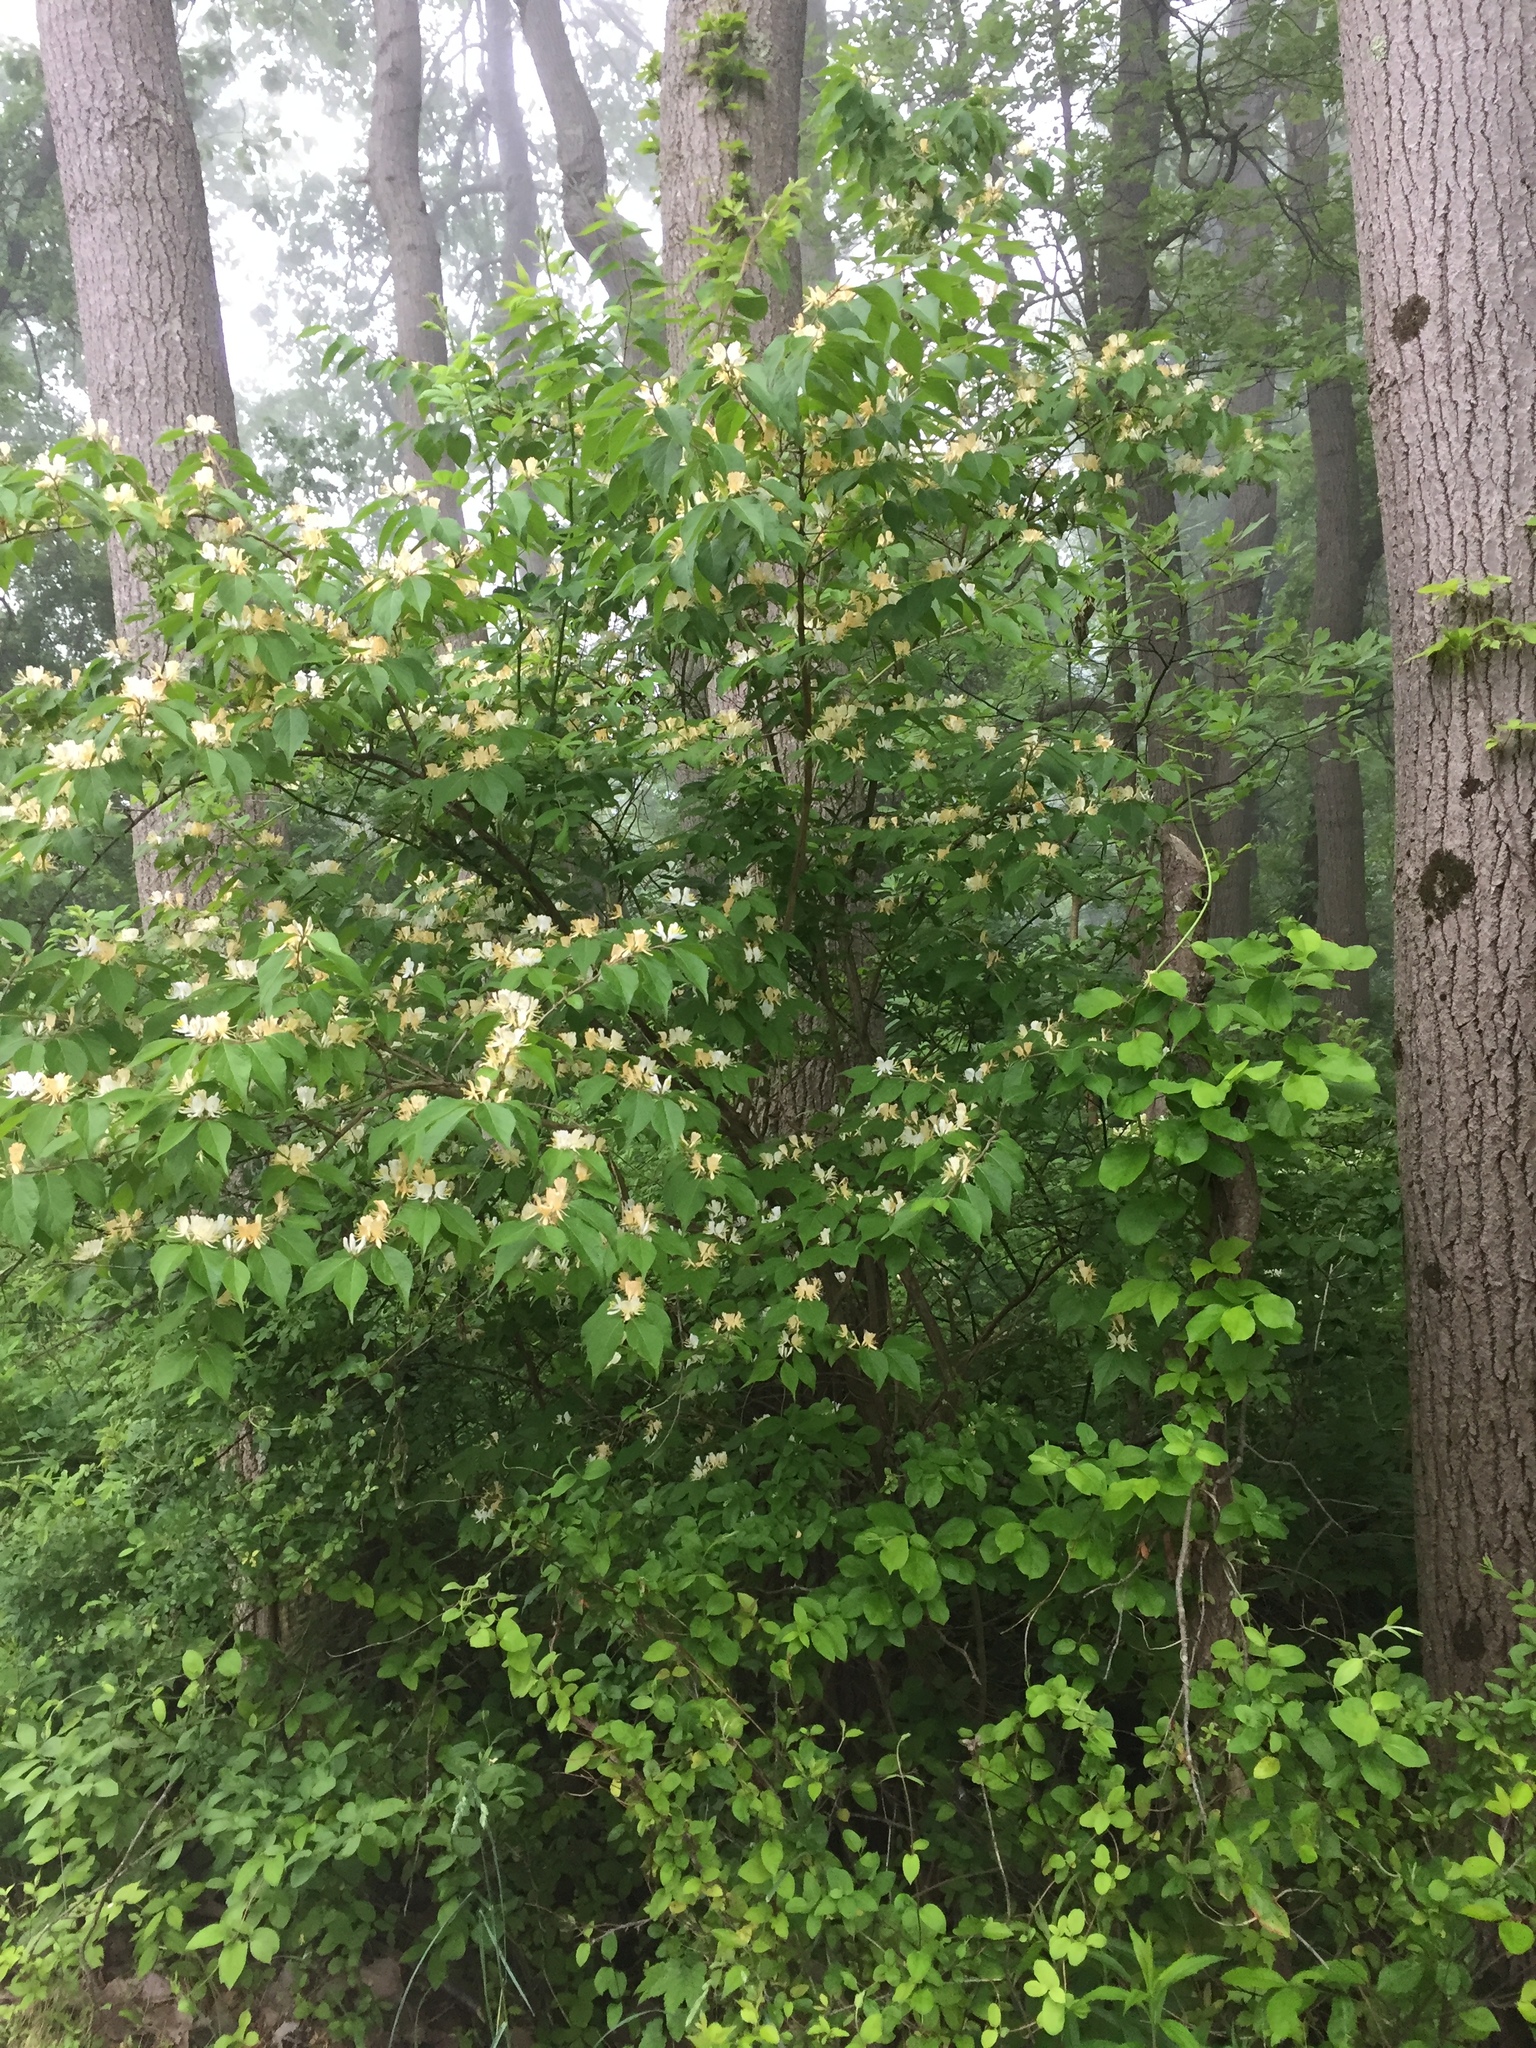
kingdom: Plantae
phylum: Tracheophyta
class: Magnoliopsida
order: Dipsacales
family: Caprifoliaceae
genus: Lonicera
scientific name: Lonicera maackii
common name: Amur honeysuckle
